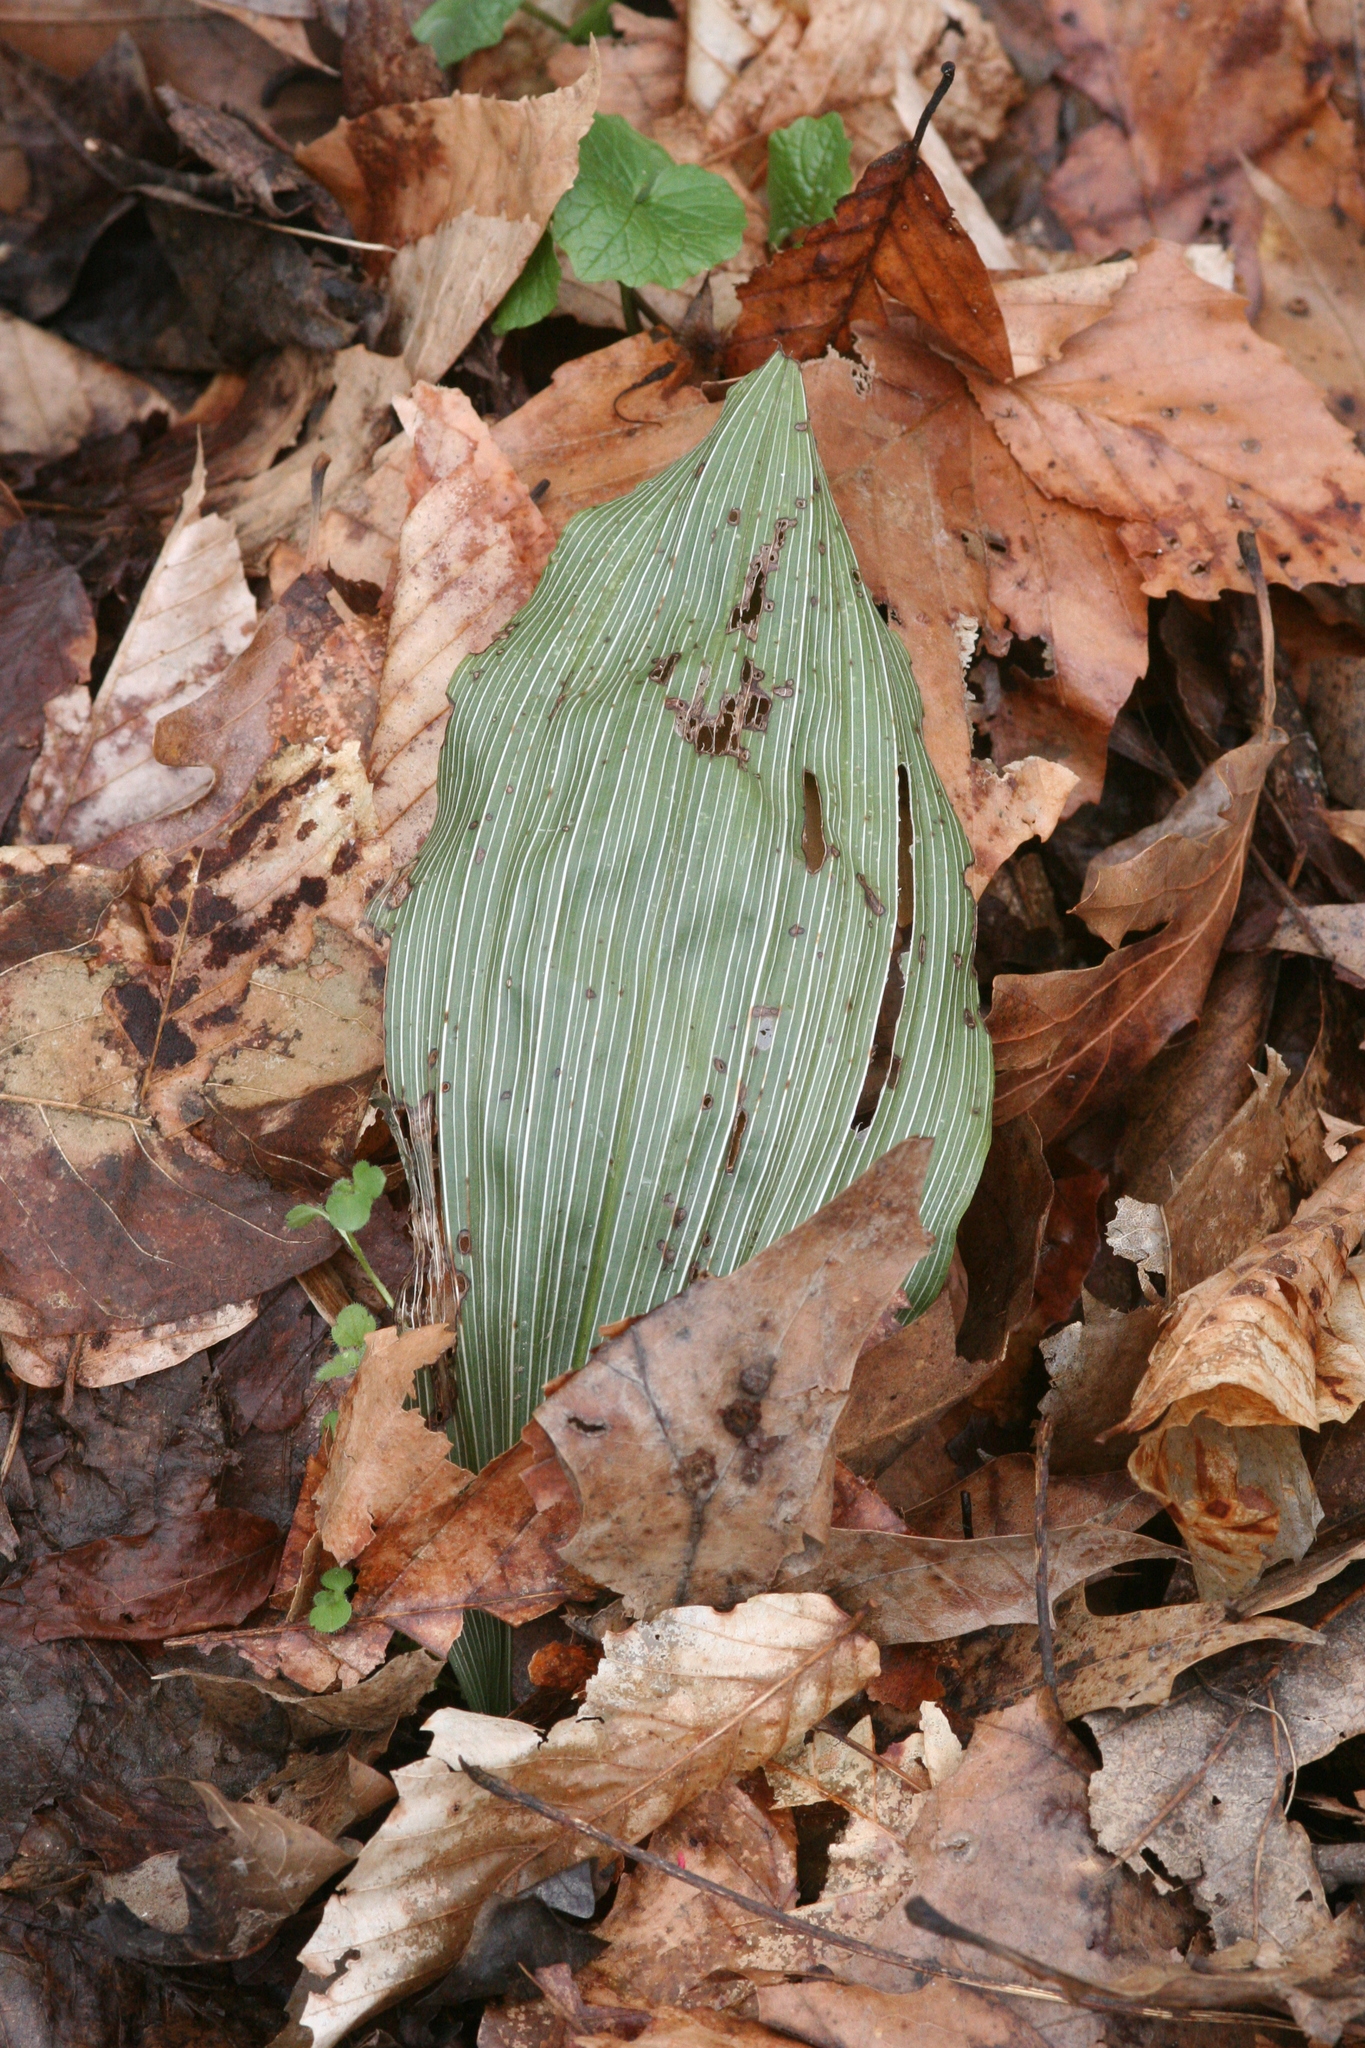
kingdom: Plantae
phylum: Tracheophyta
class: Liliopsida
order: Asparagales
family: Orchidaceae
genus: Aplectrum
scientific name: Aplectrum hyemale
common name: Adam-and-eve
